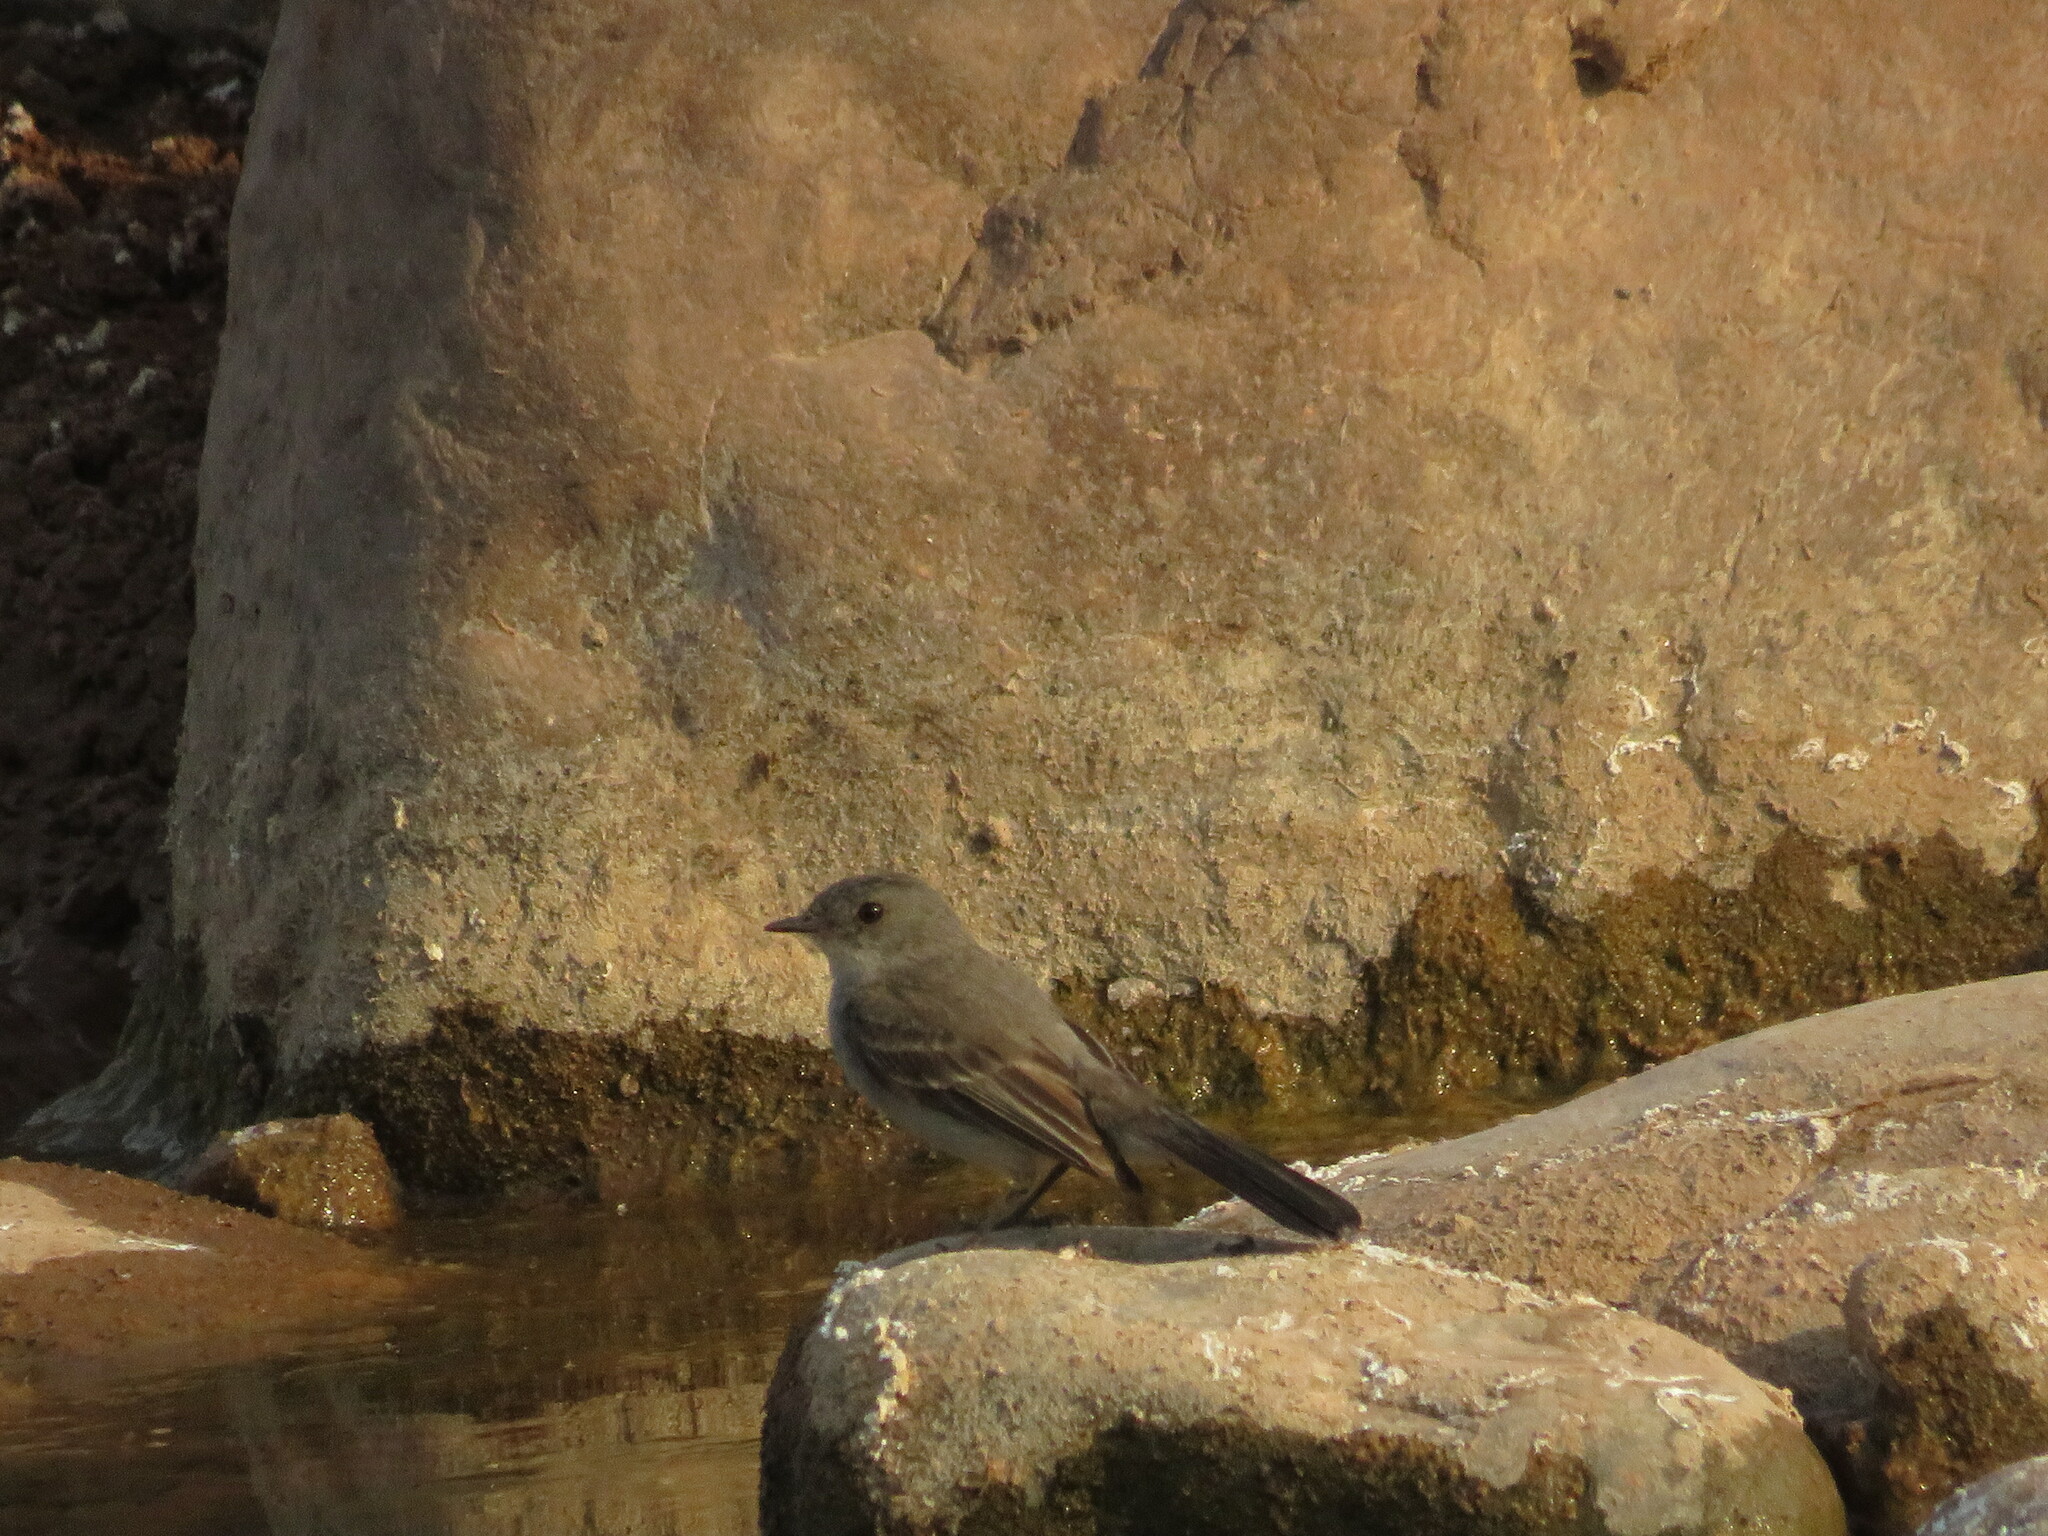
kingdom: Animalia
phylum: Chordata
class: Aves
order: Passeriformes
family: Tyrannidae
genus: Serpophaga
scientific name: Serpophaga nigricans
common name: Sooty tyrannulet
